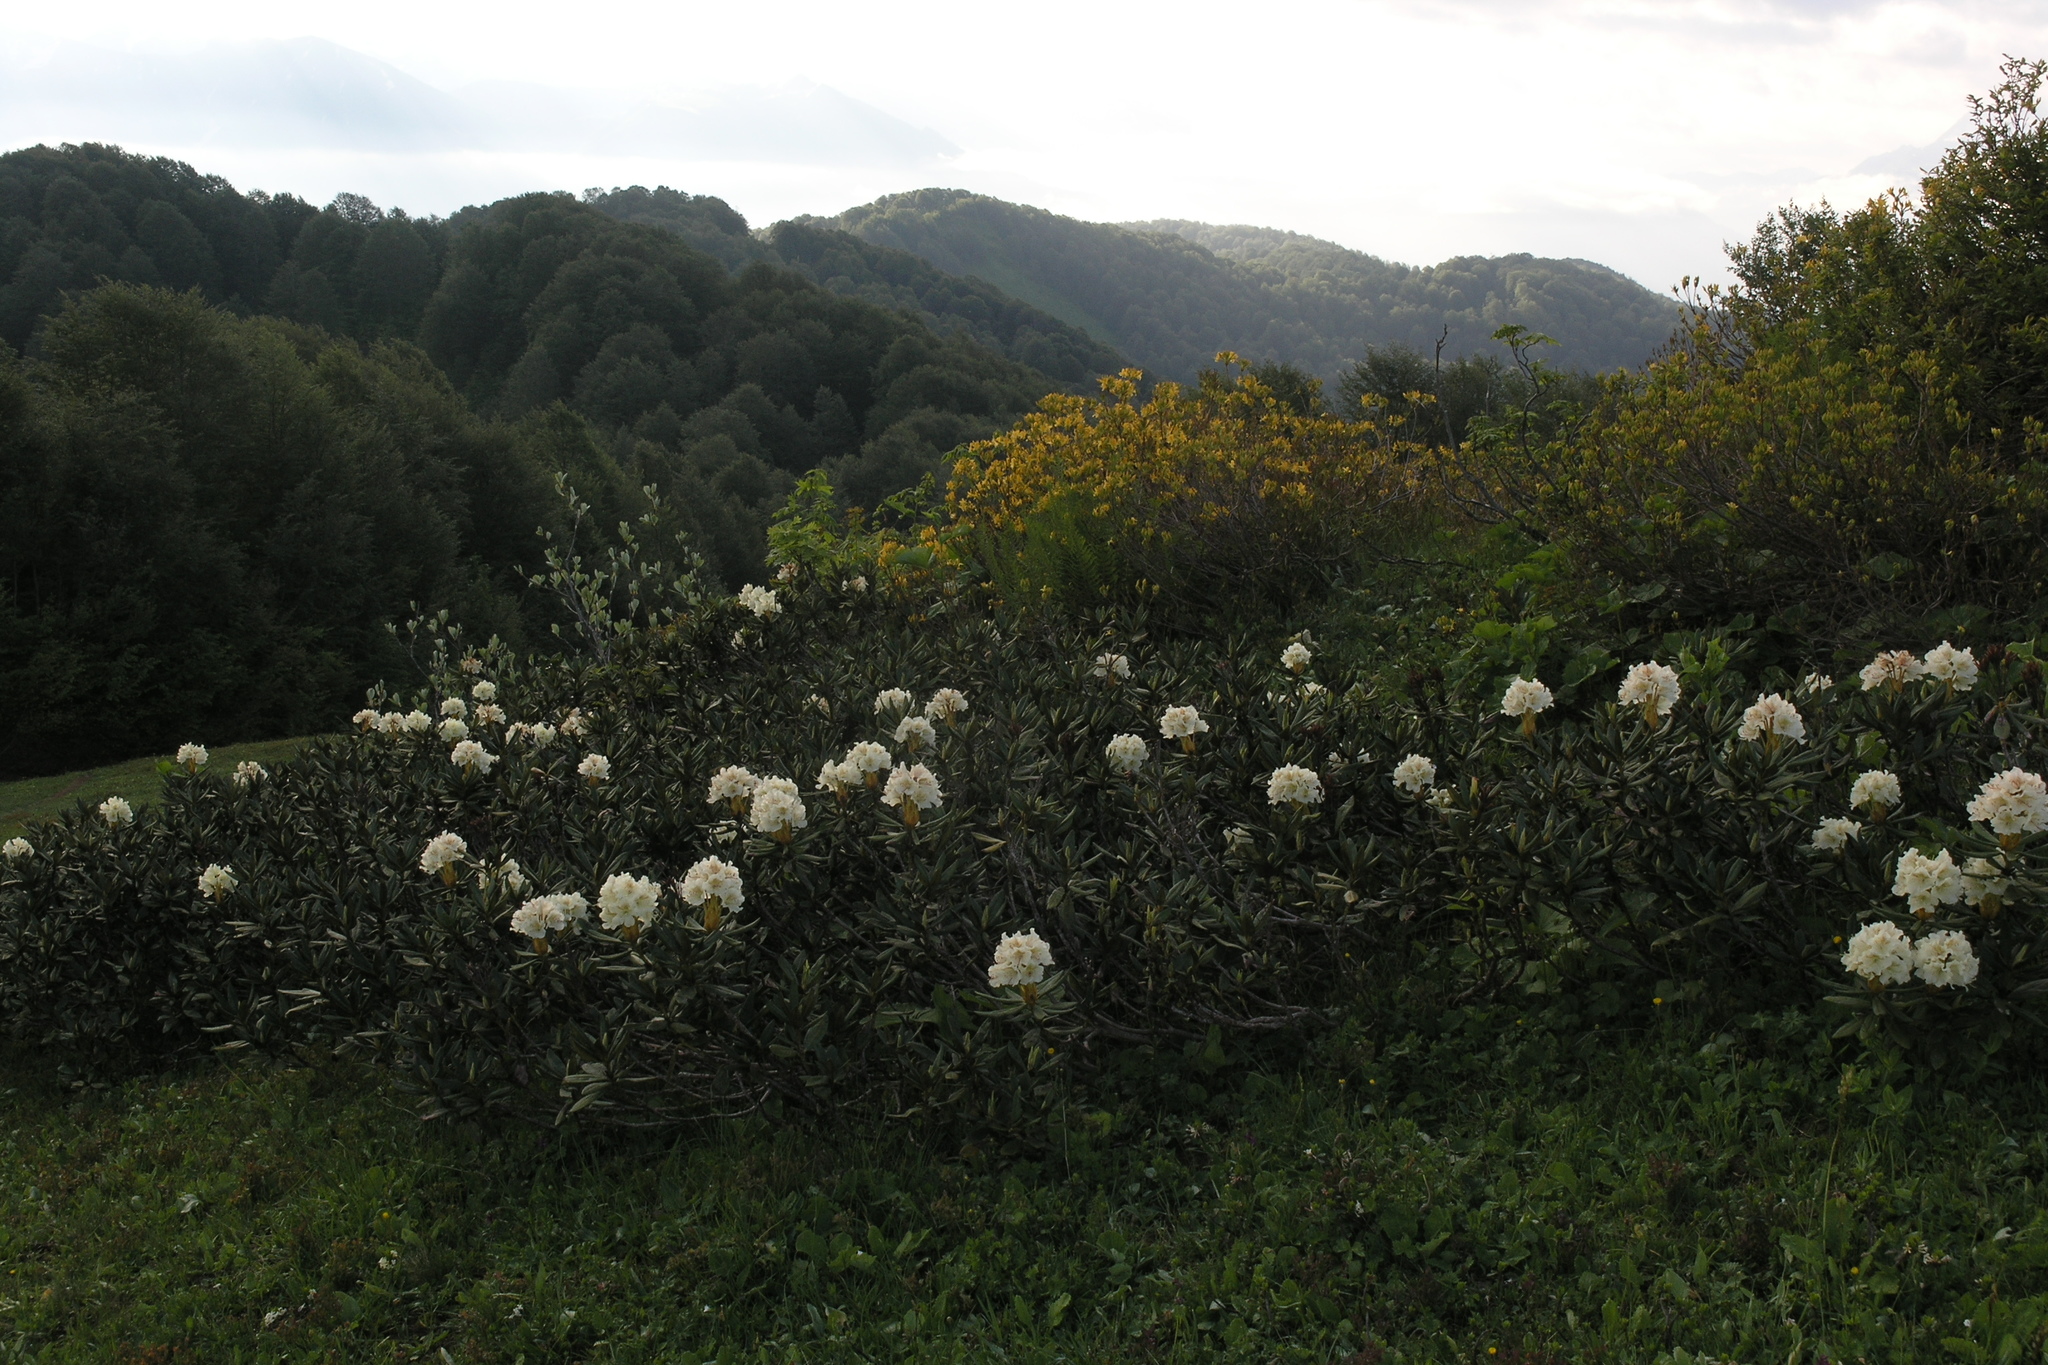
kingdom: Plantae
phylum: Tracheophyta
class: Magnoliopsida
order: Ericales
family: Ericaceae
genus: Rhododendron
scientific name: Rhododendron caucasicum
